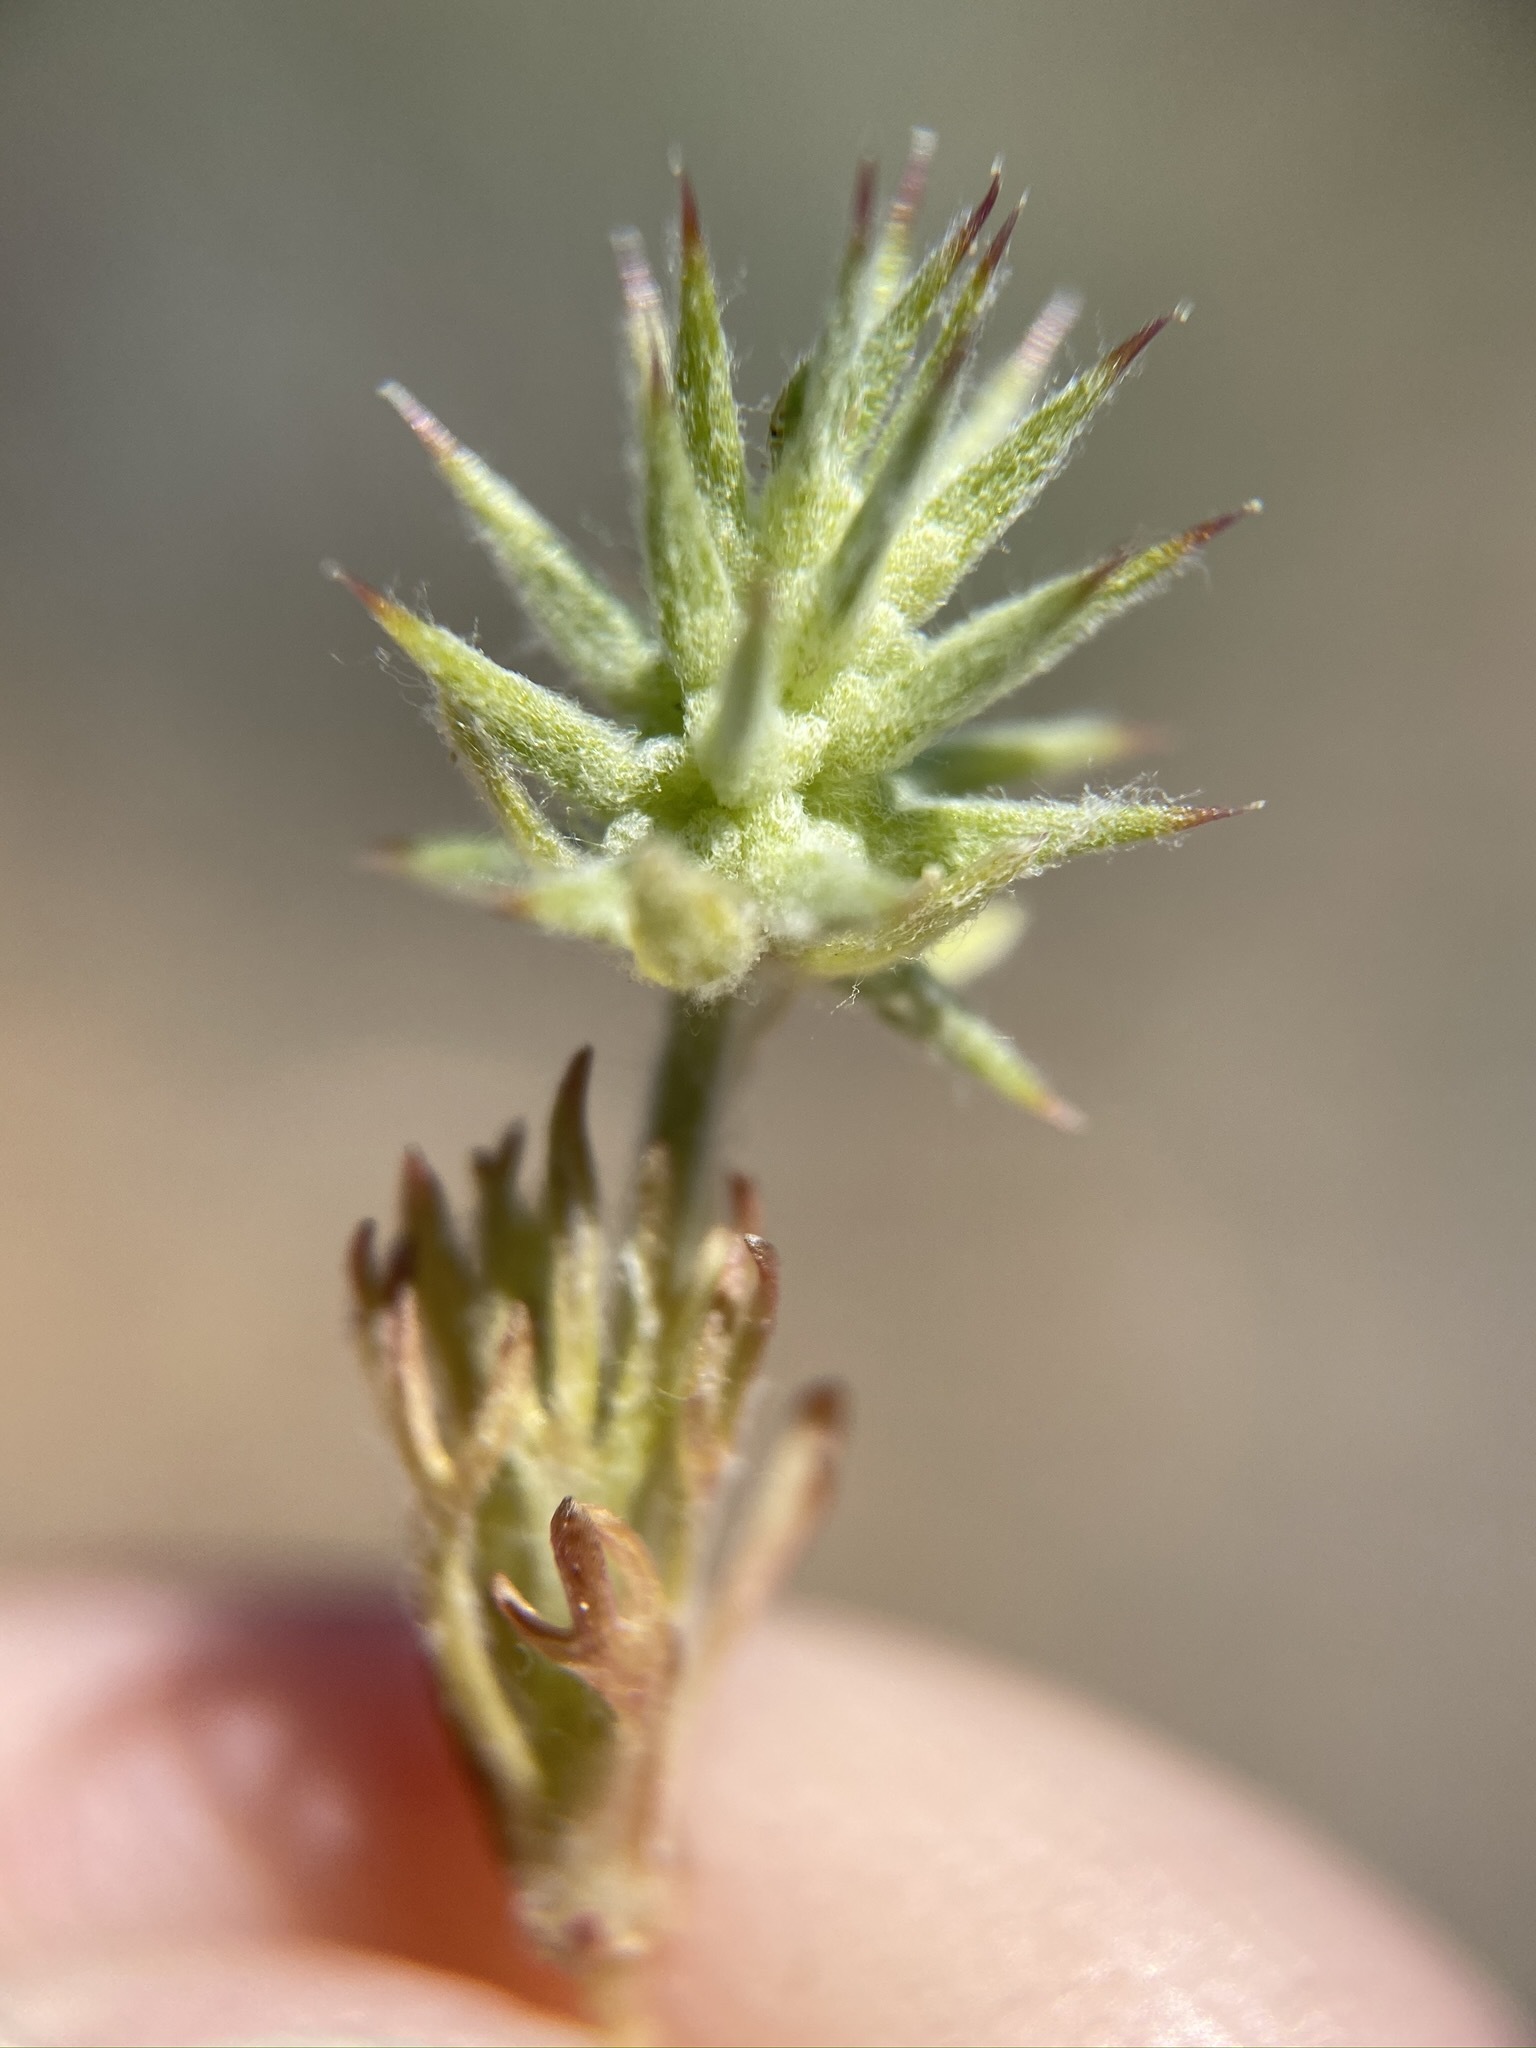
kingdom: Plantae
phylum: Tracheophyta
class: Magnoliopsida
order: Ranunculales
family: Ranunculaceae
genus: Ceratocephala
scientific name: Ceratocephala orthoceras
